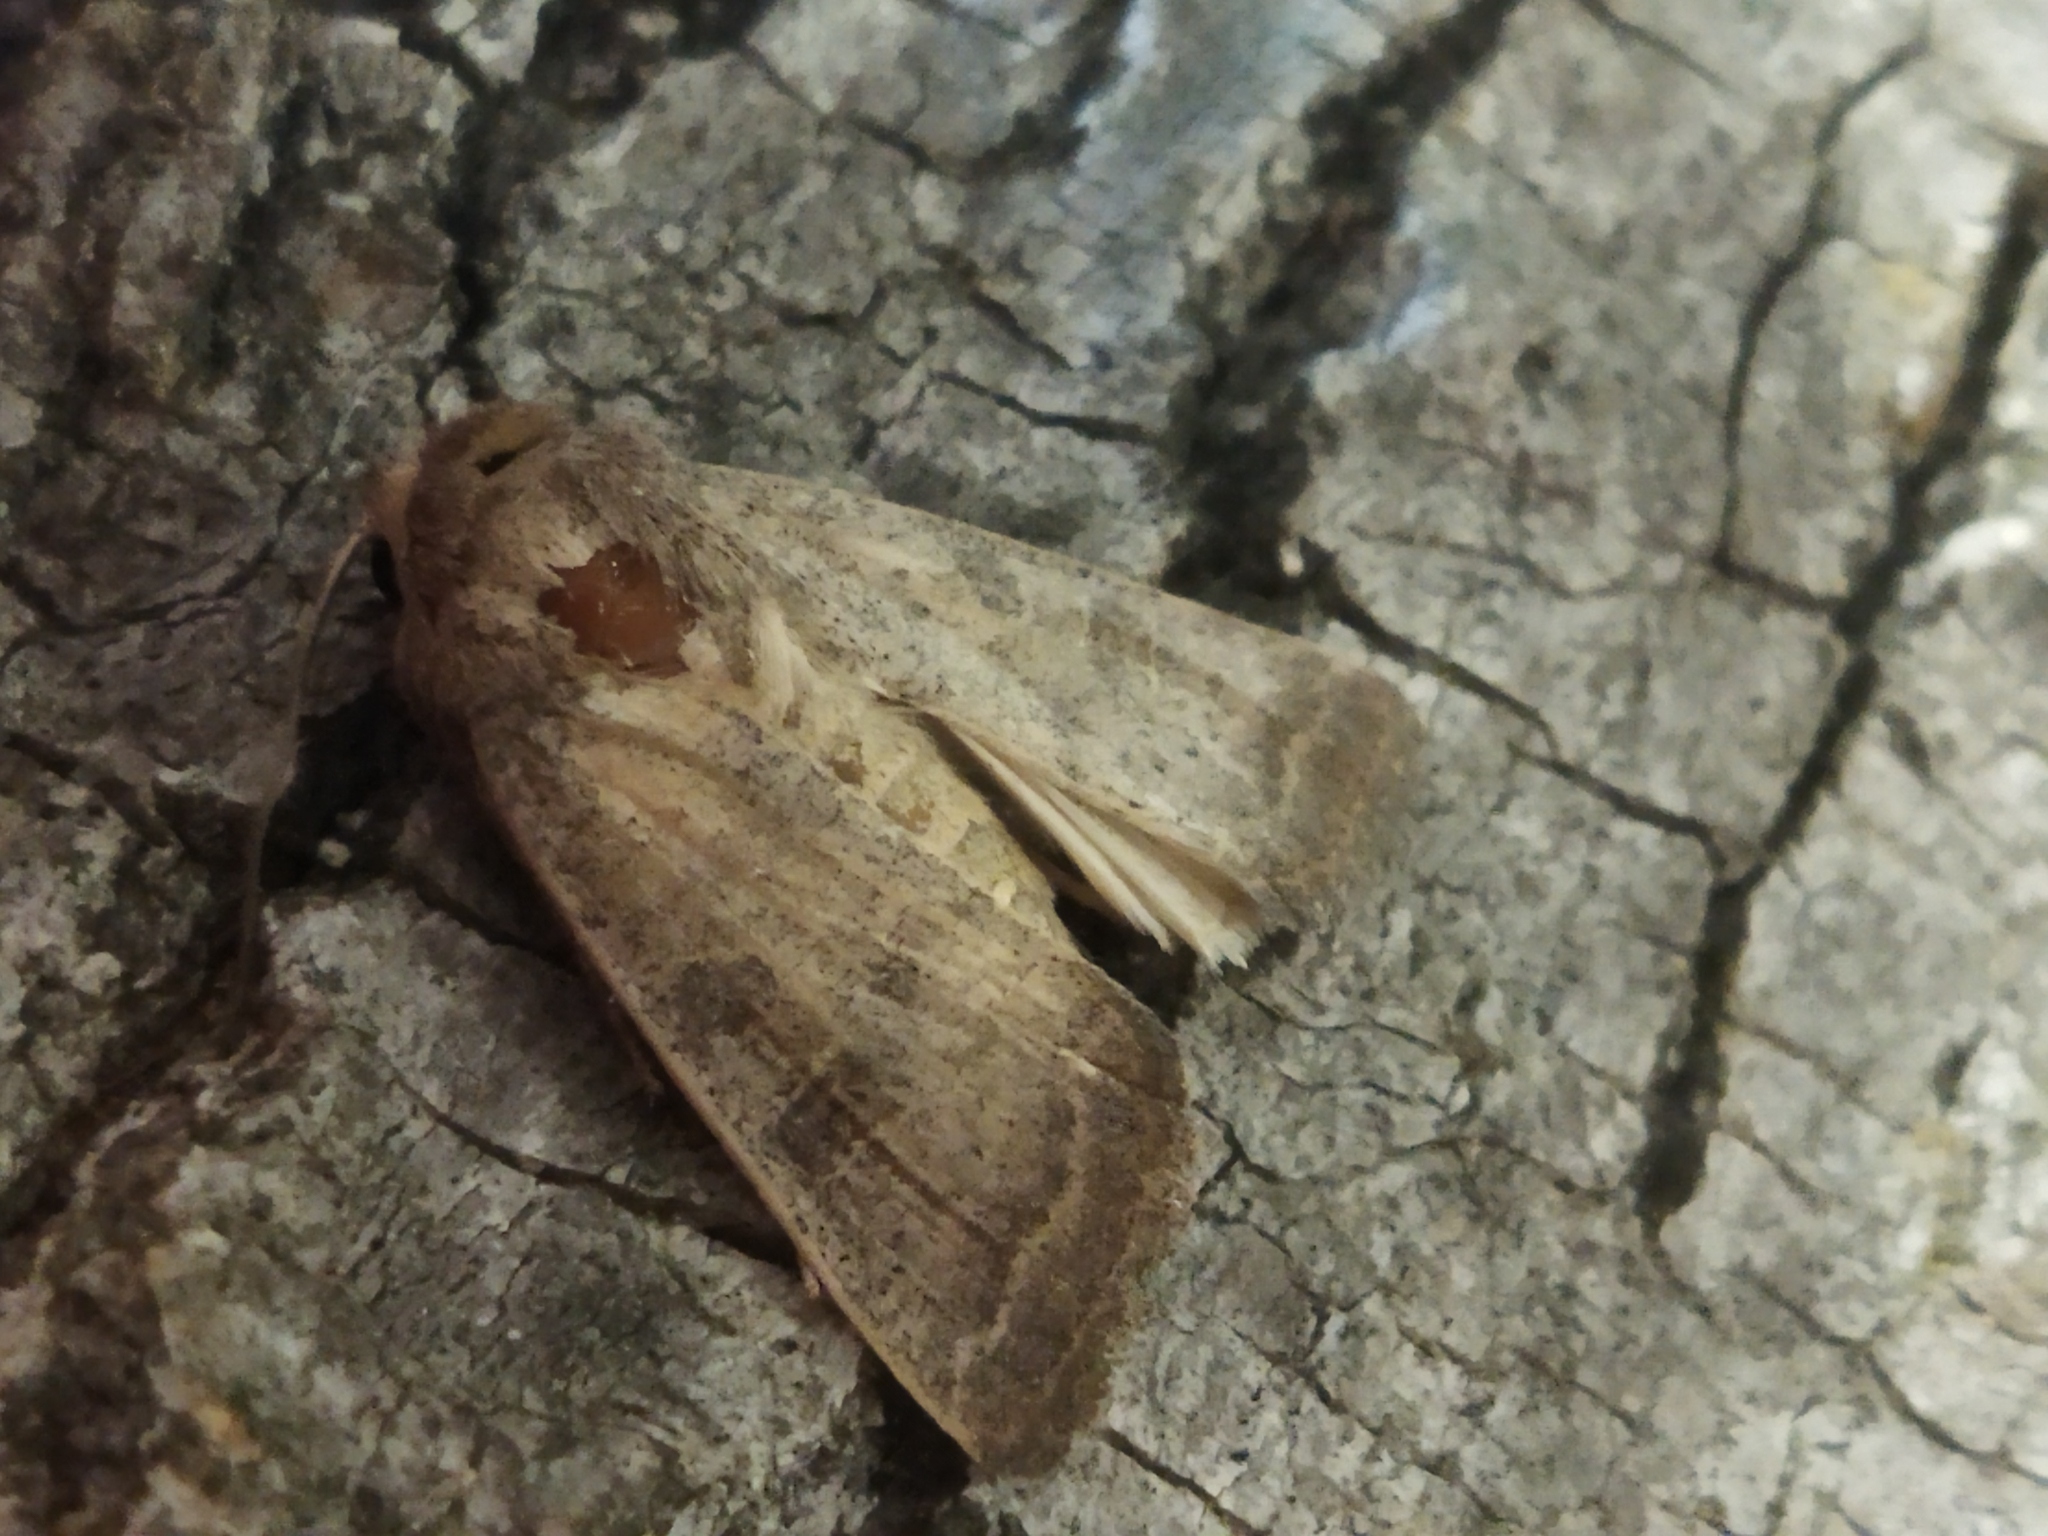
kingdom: Animalia
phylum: Arthropoda
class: Insecta
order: Lepidoptera
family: Noctuidae
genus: Hoplodrina
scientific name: Hoplodrina ambigua
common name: Vine's rustic
